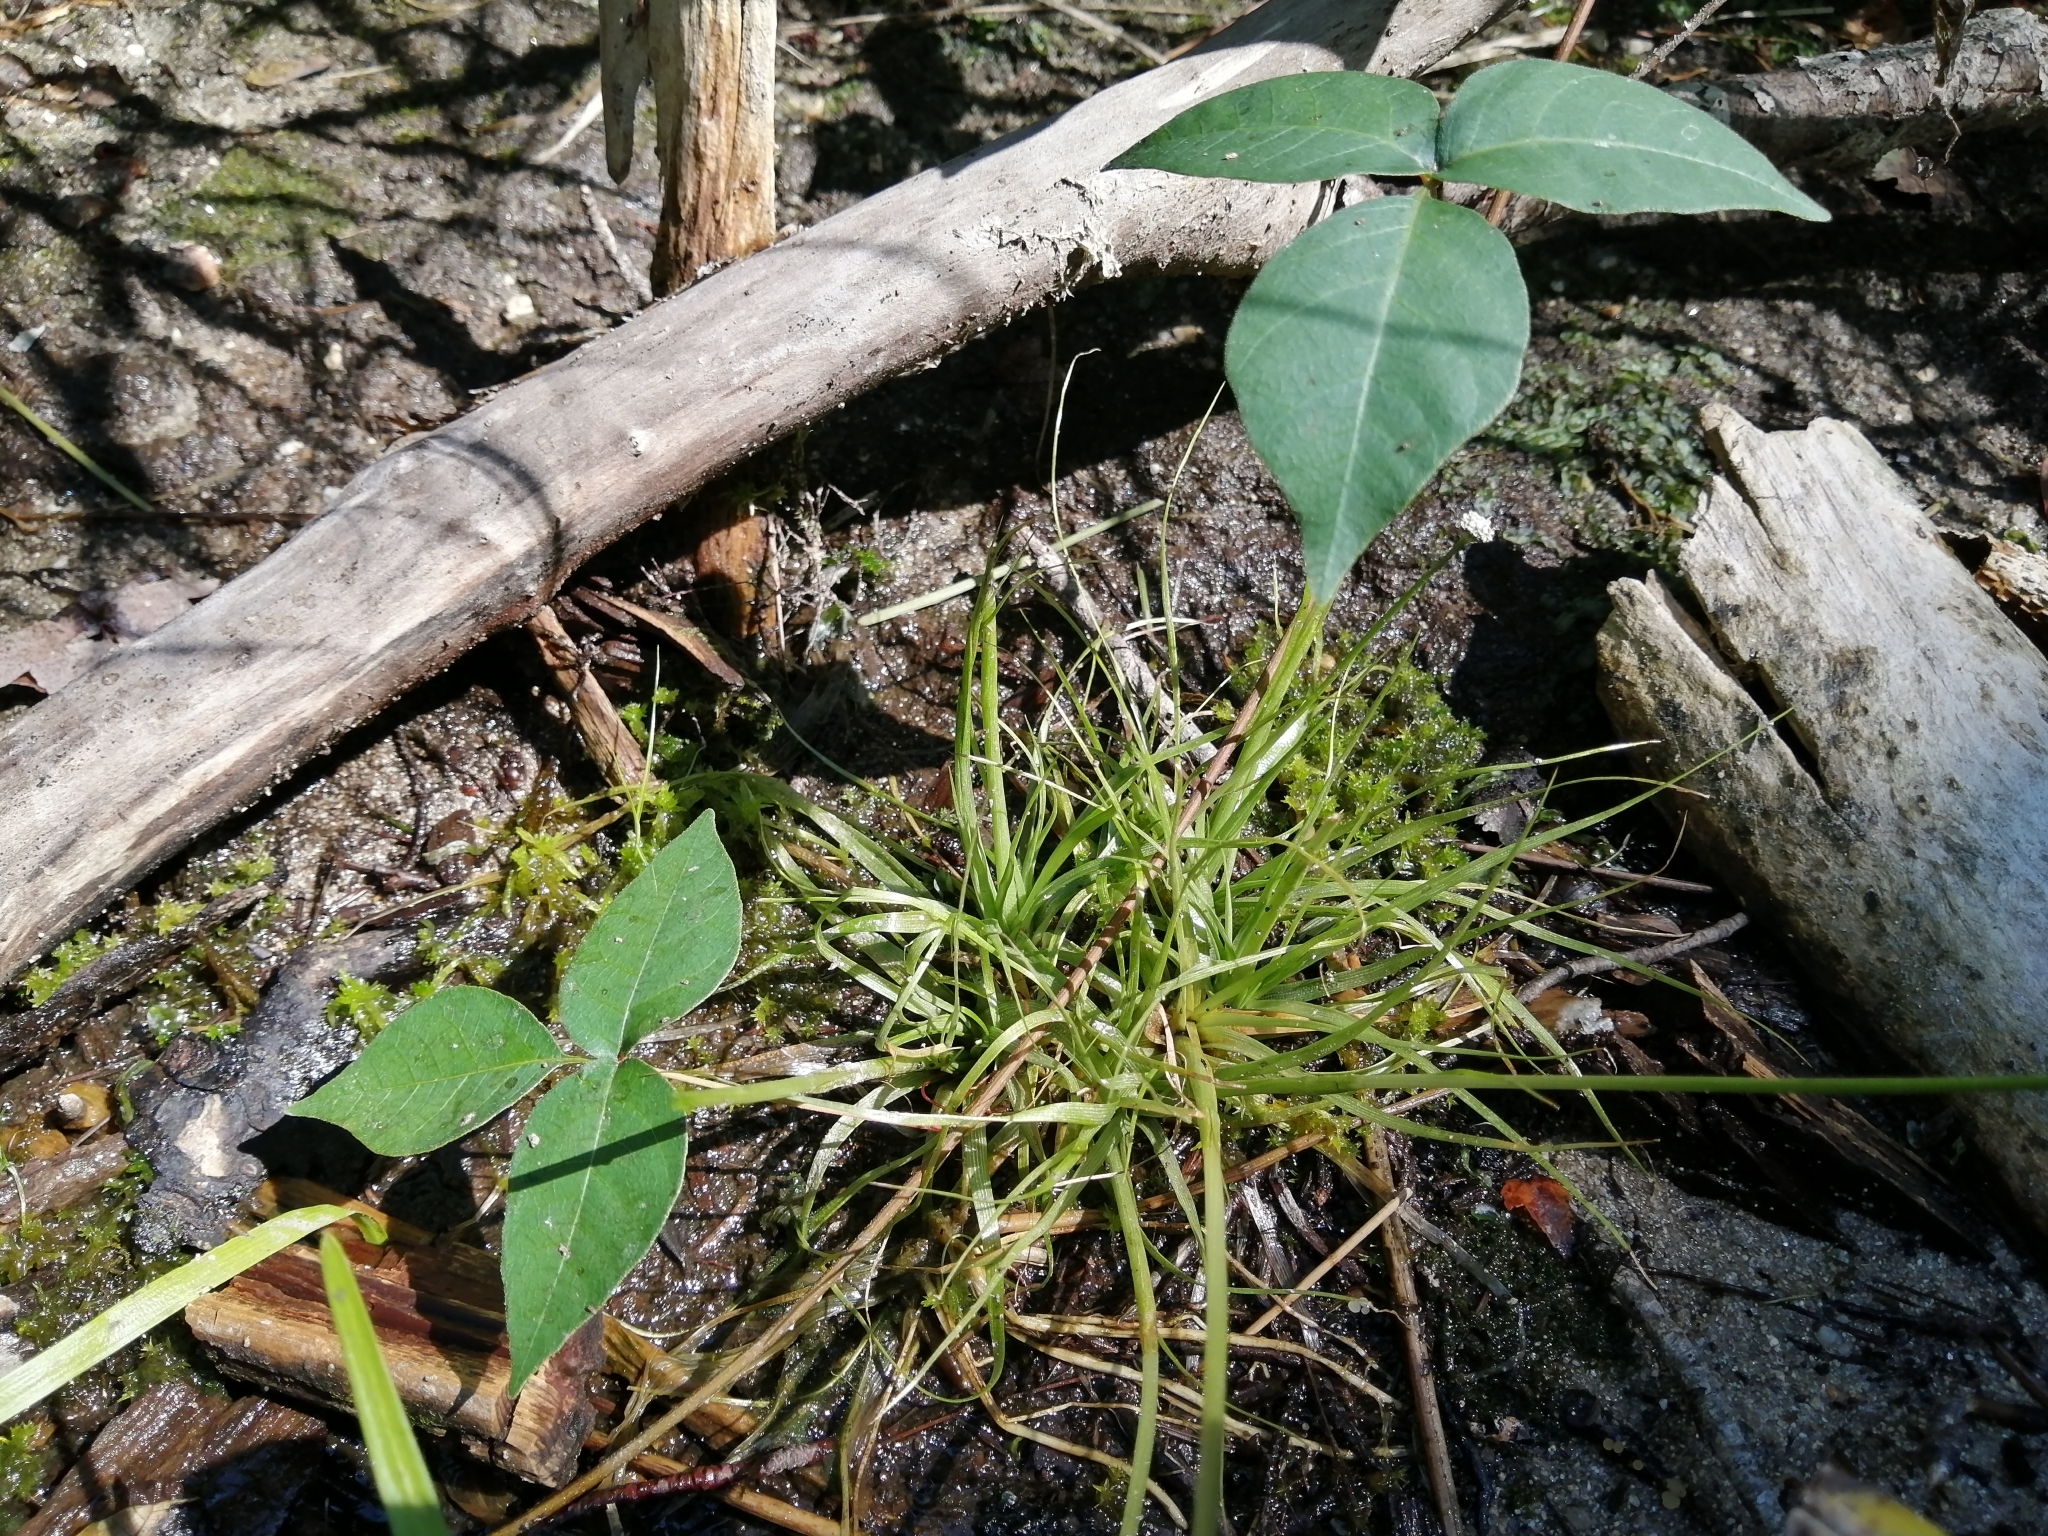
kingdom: Plantae
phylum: Tracheophyta
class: Magnoliopsida
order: Sapindales
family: Anacardiaceae
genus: Toxicodendron
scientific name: Toxicodendron radicans
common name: Poison ivy
